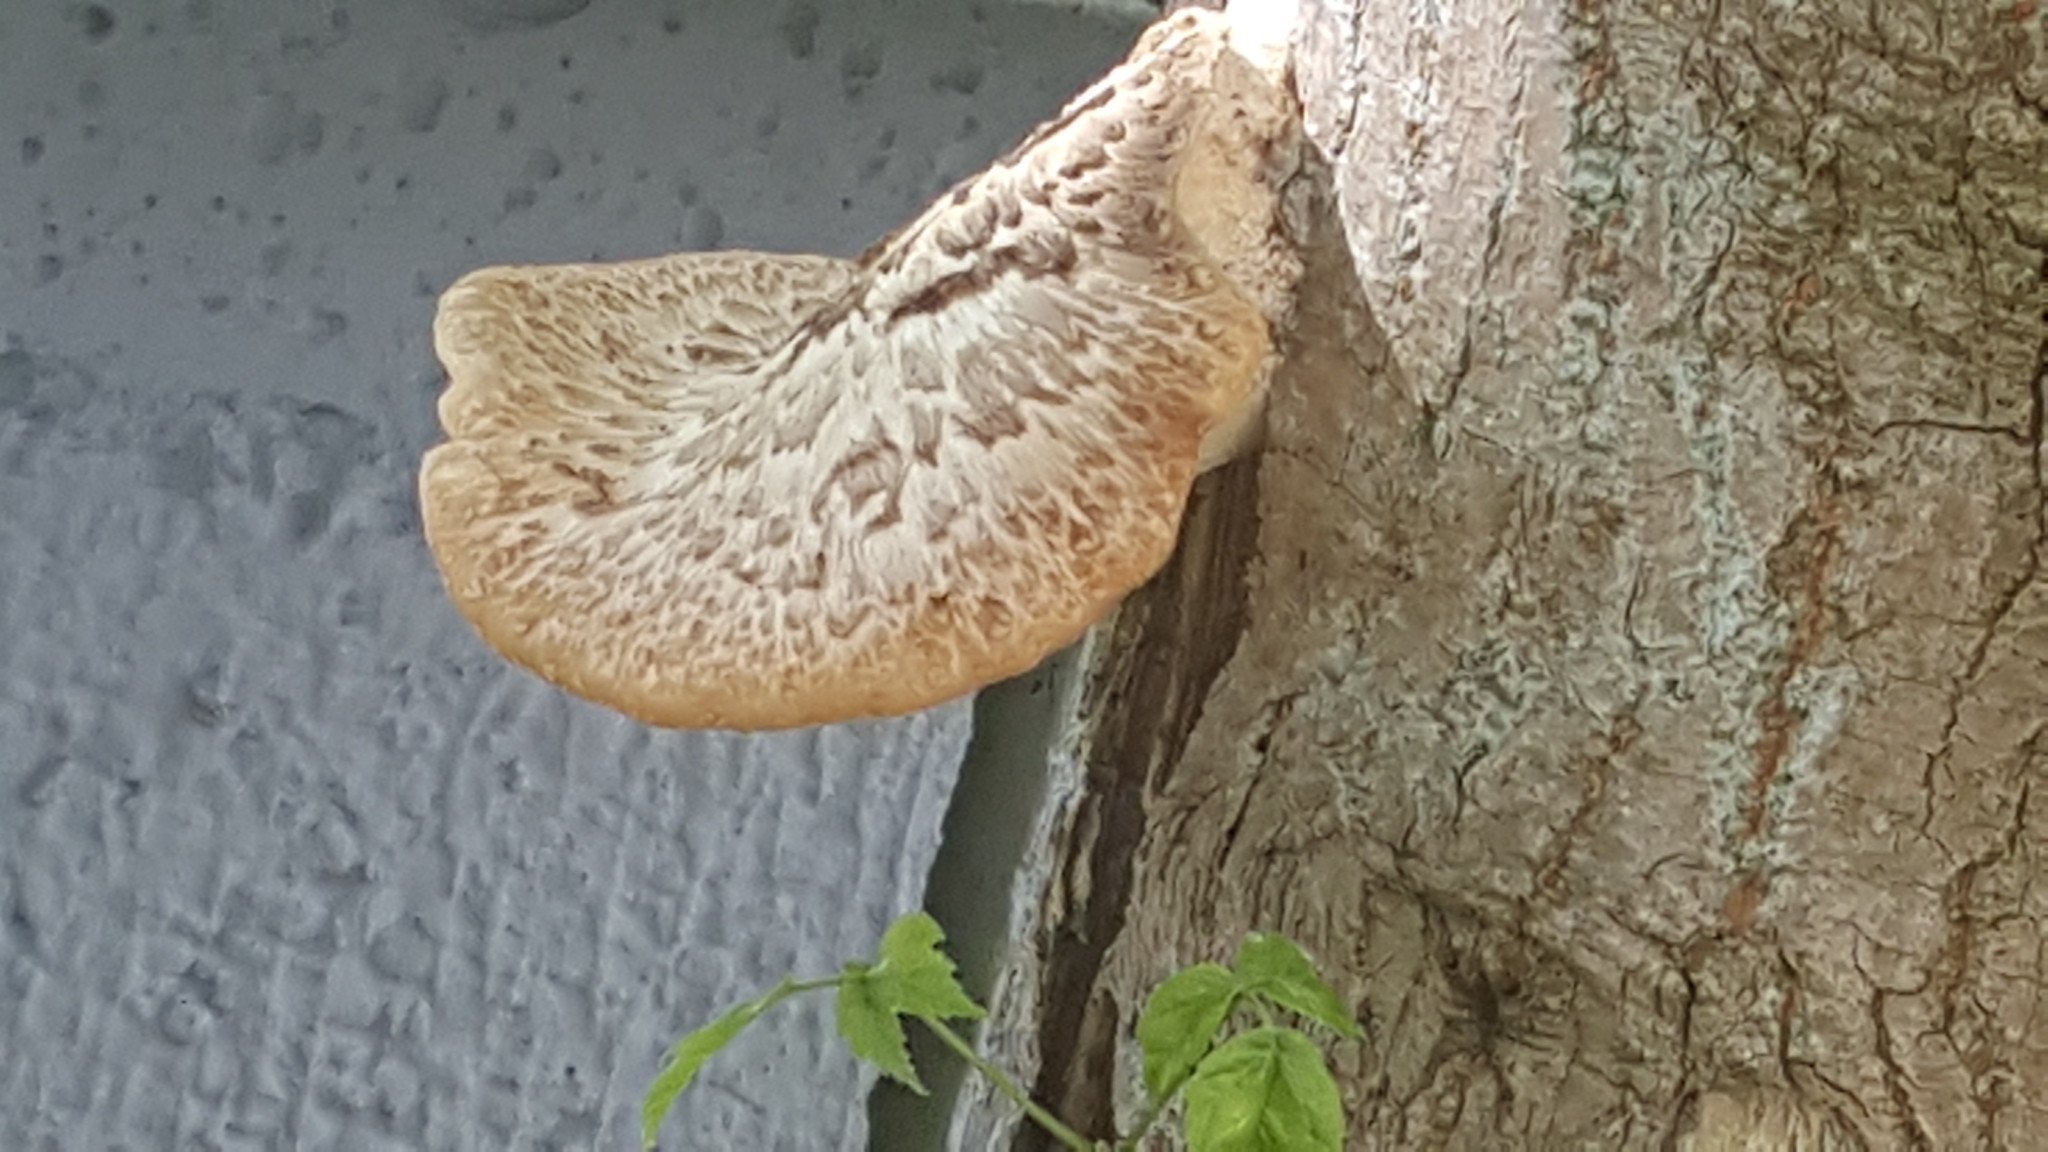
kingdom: Fungi
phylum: Basidiomycota
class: Agaricomycetes
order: Polyporales
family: Polyporaceae
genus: Cerioporus
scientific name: Cerioporus squamosus
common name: Dryad's saddle
